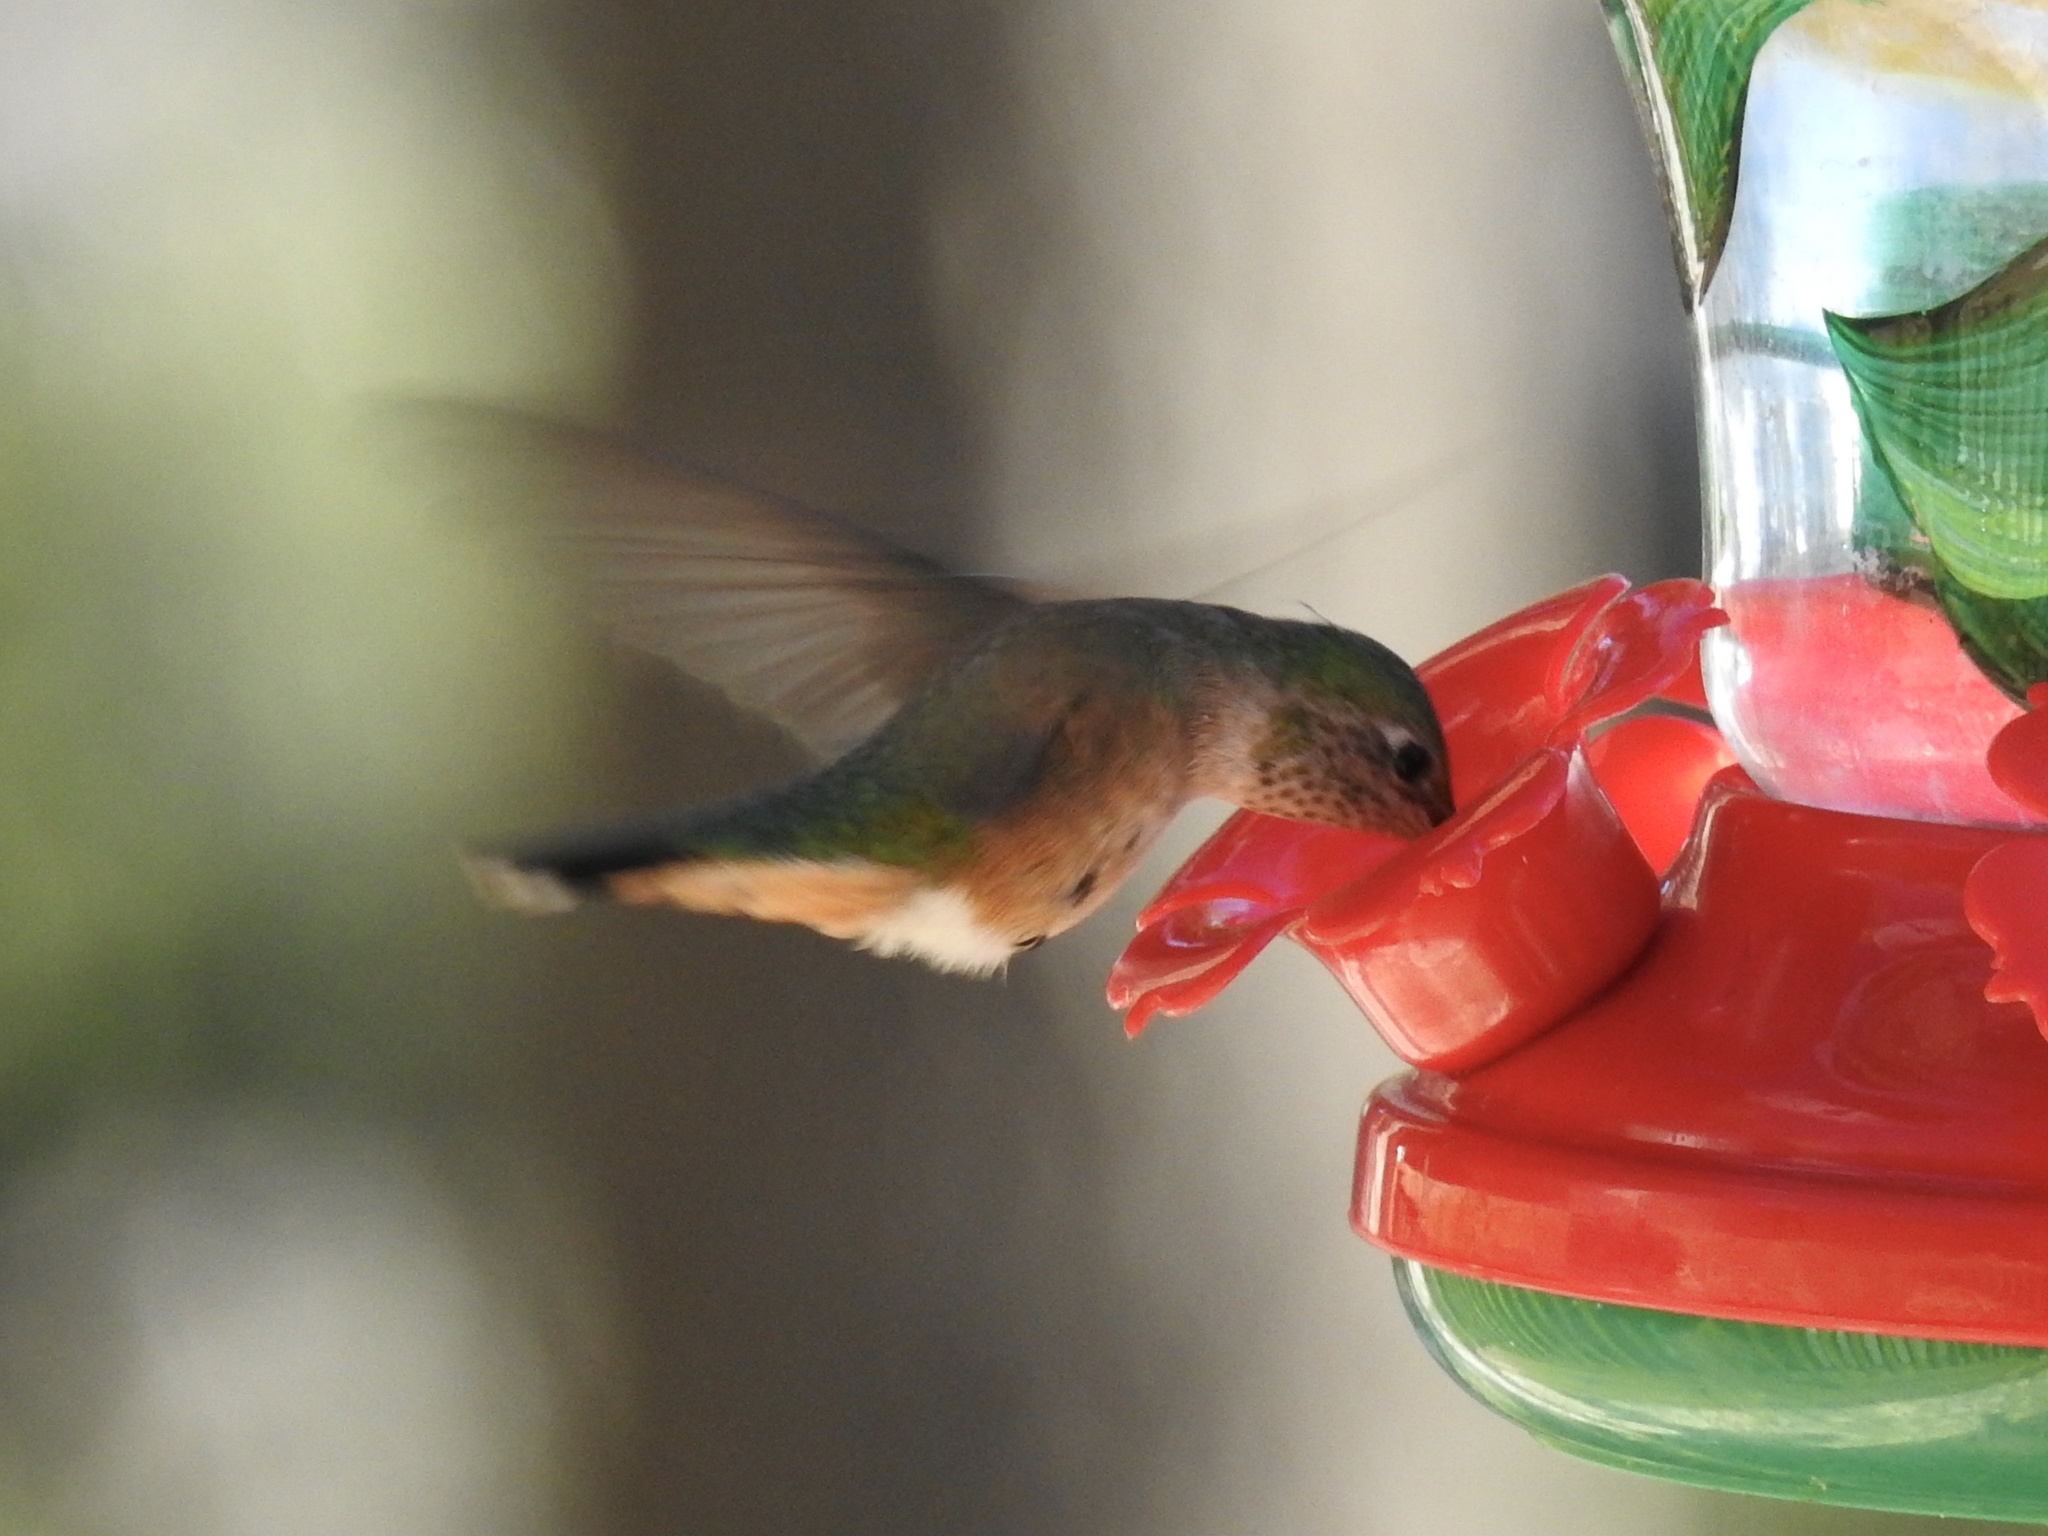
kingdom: Animalia
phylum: Chordata
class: Aves
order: Apodiformes
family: Trochilidae
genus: Selasphorus
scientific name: Selasphorus platycercus
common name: Broad-tailed hummingbird
